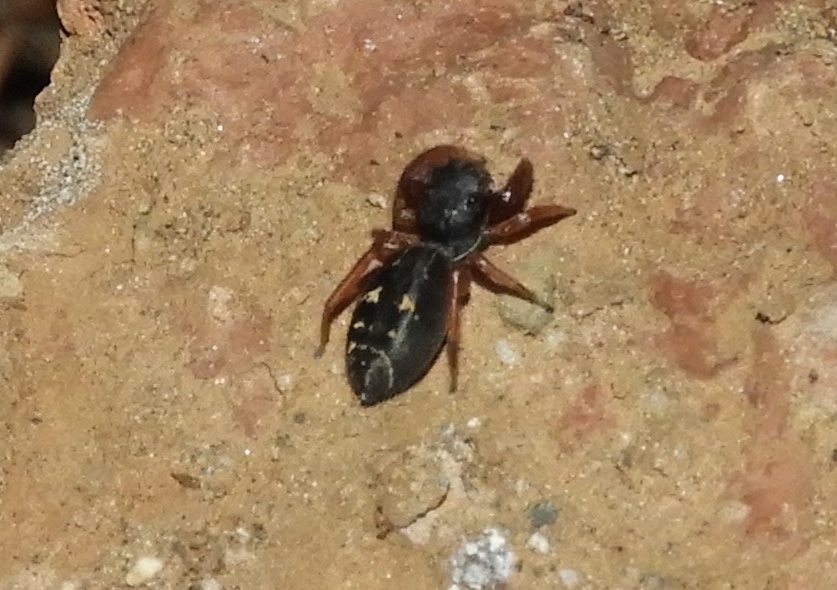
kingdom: Animalia
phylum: Arthropoda
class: Arachnida
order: Araneae
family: Salticidae
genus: Metacyrba
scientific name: Metacyrba
